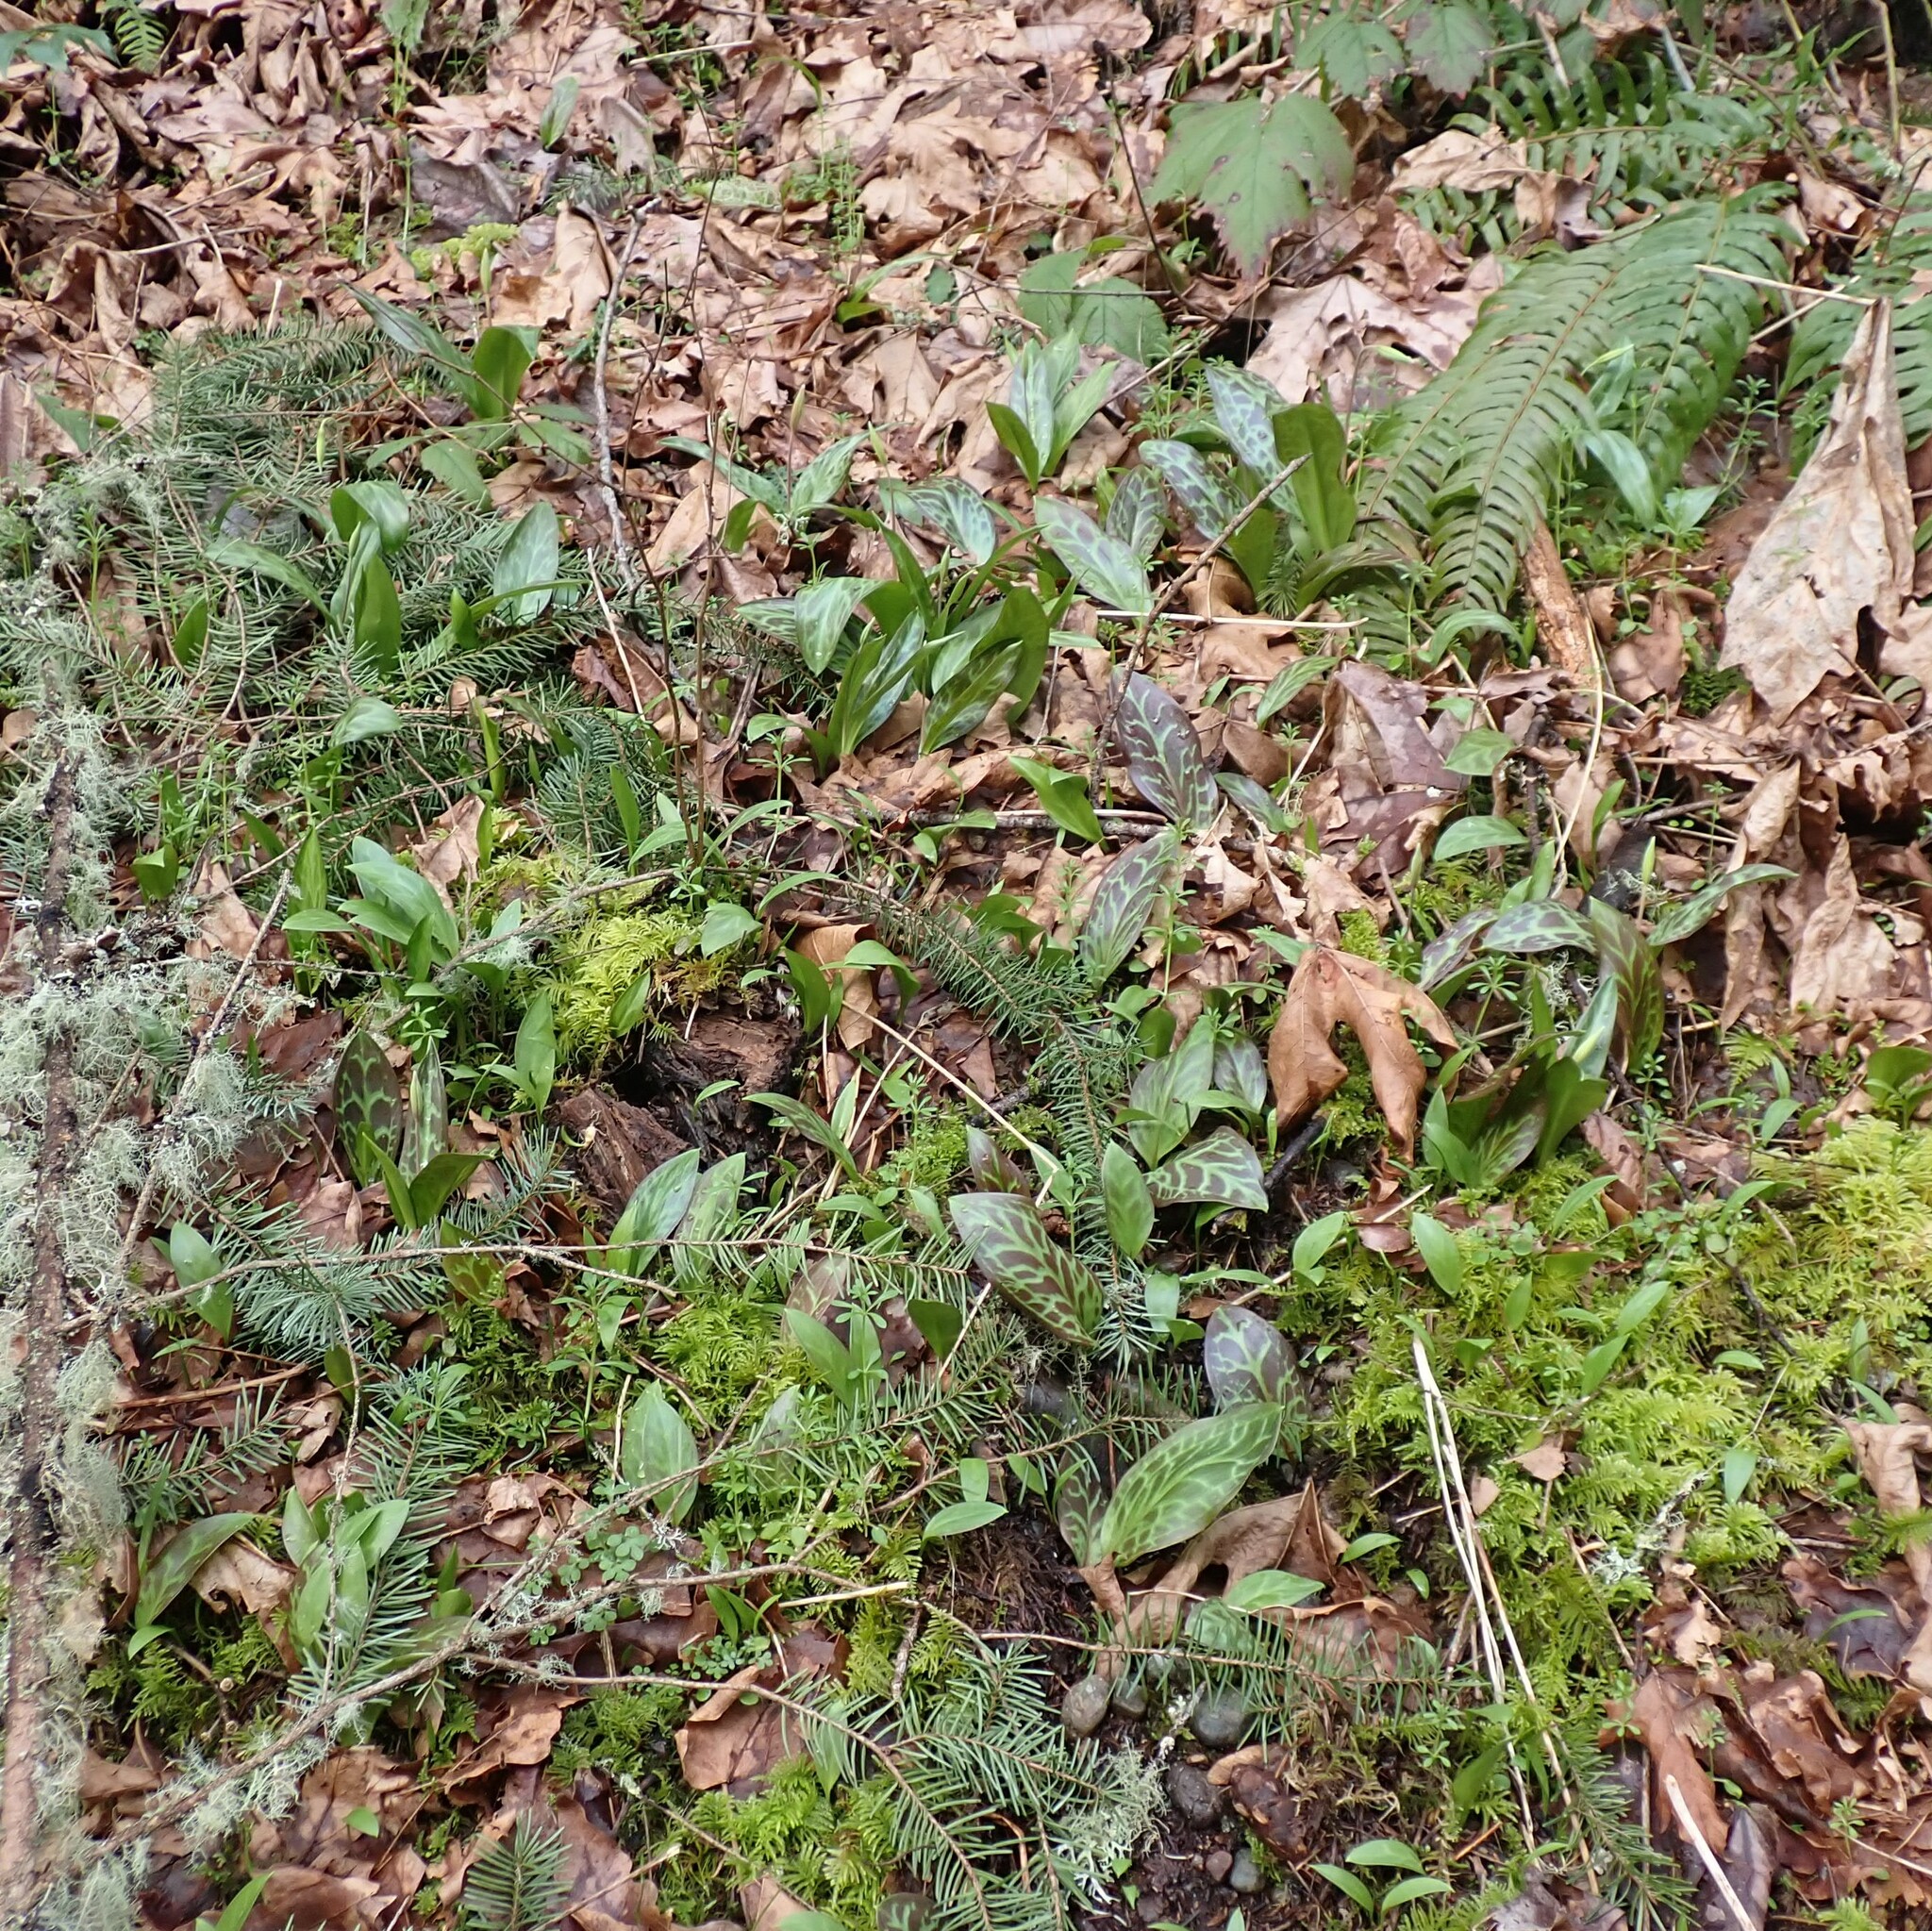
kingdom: Plantae
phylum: Tracheophyta
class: Liliopsida
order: Liliales
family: Liliaceae
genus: Erythronium
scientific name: Erythronium oregonum
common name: Giant adder's-tongue
